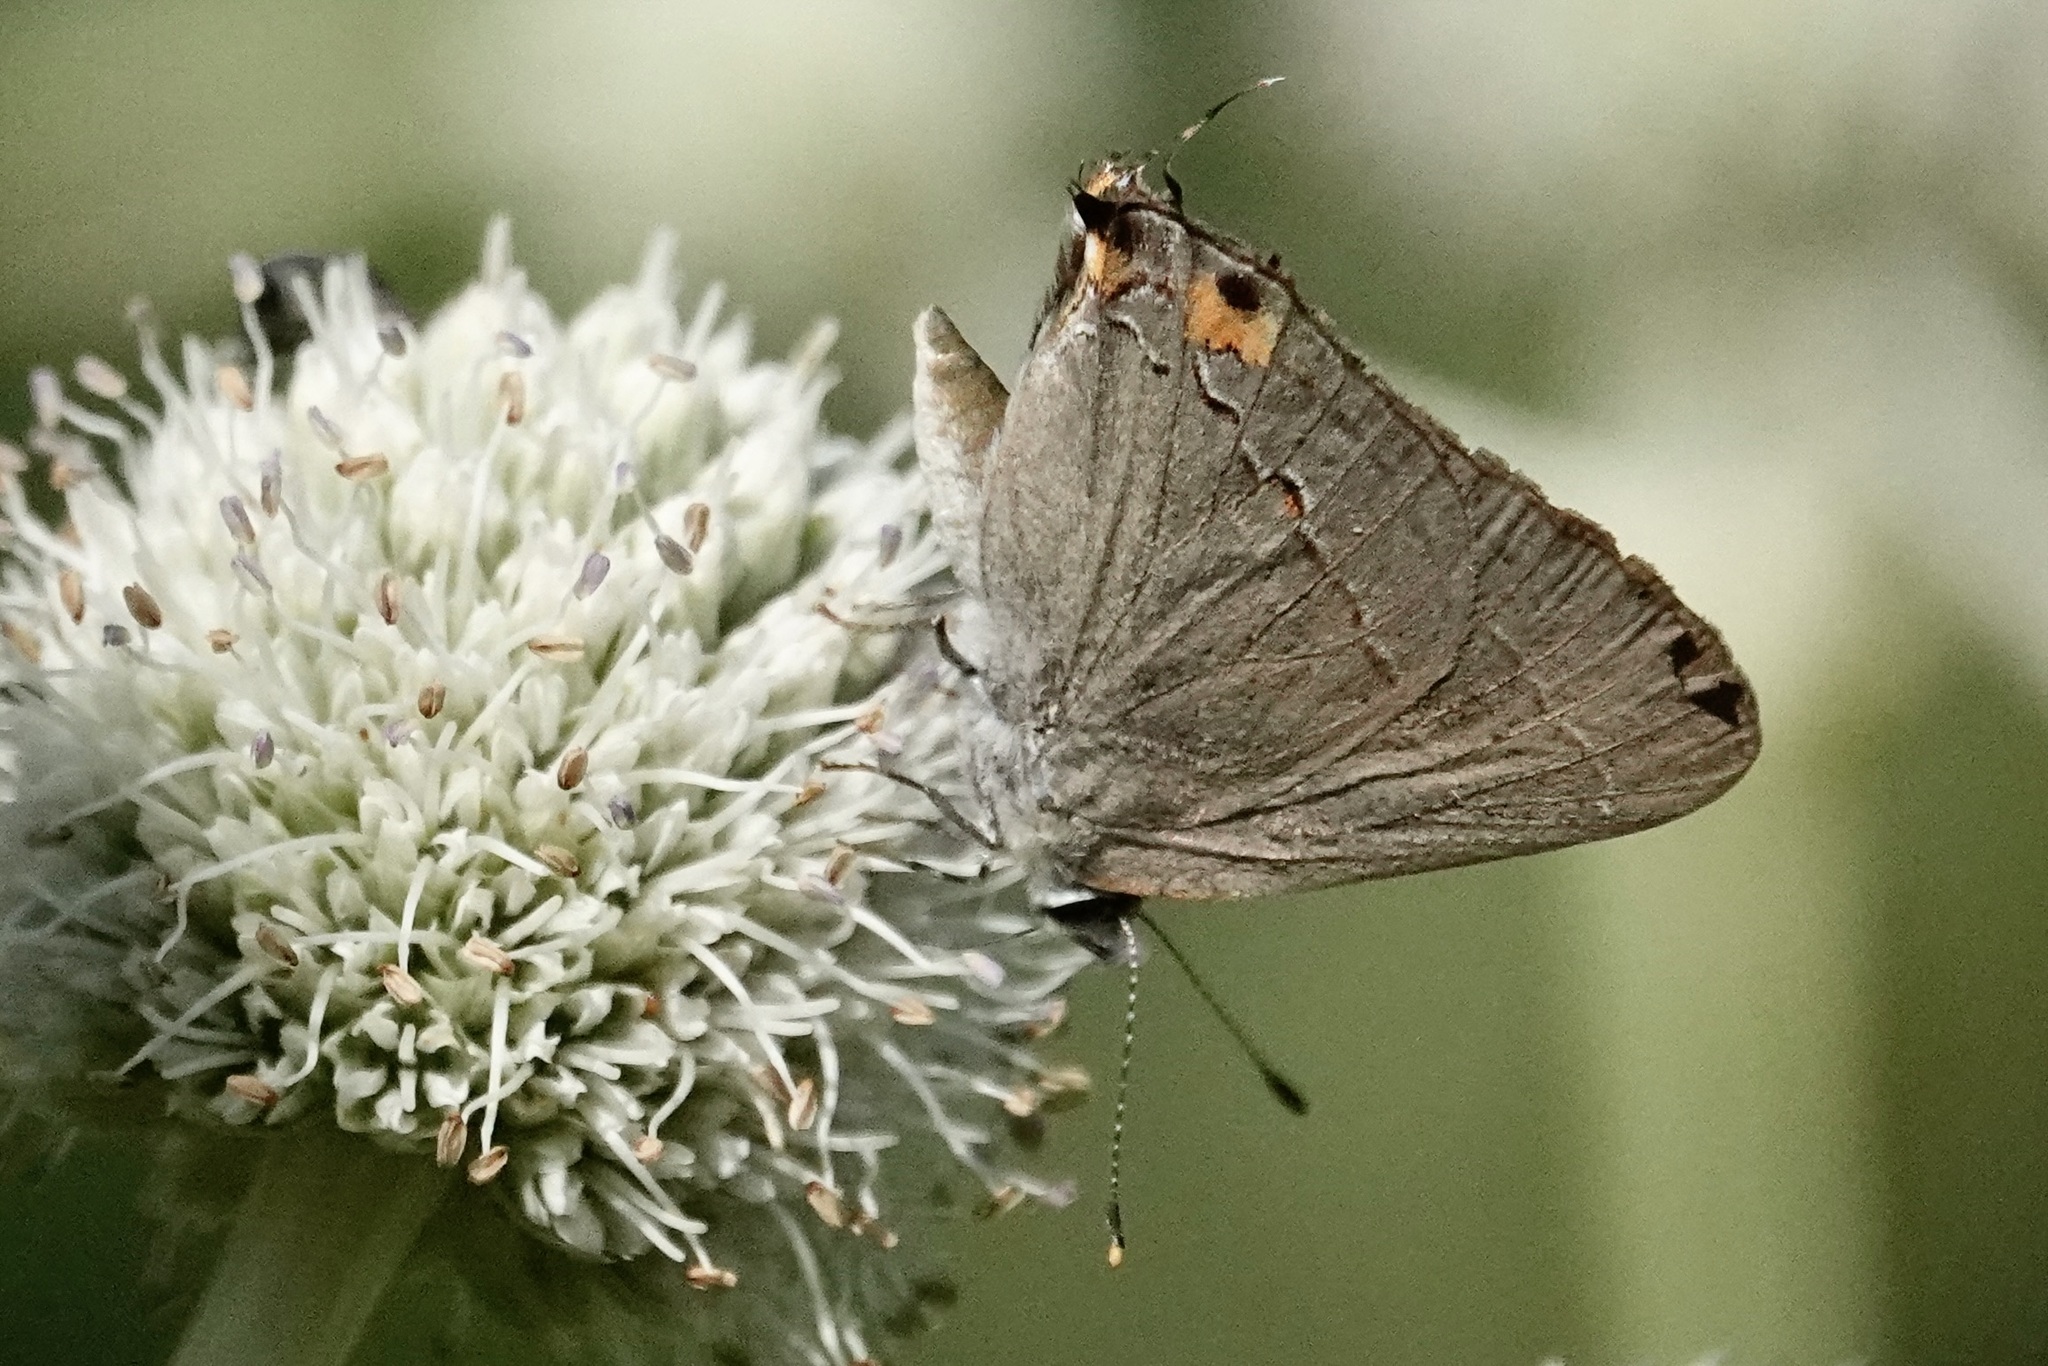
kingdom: Animalia
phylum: Arthropoda
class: Insecta
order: Lepidoptera
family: Lycaenidae
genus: Strymon
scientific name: Strymon melinus
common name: Gray hairstreak
